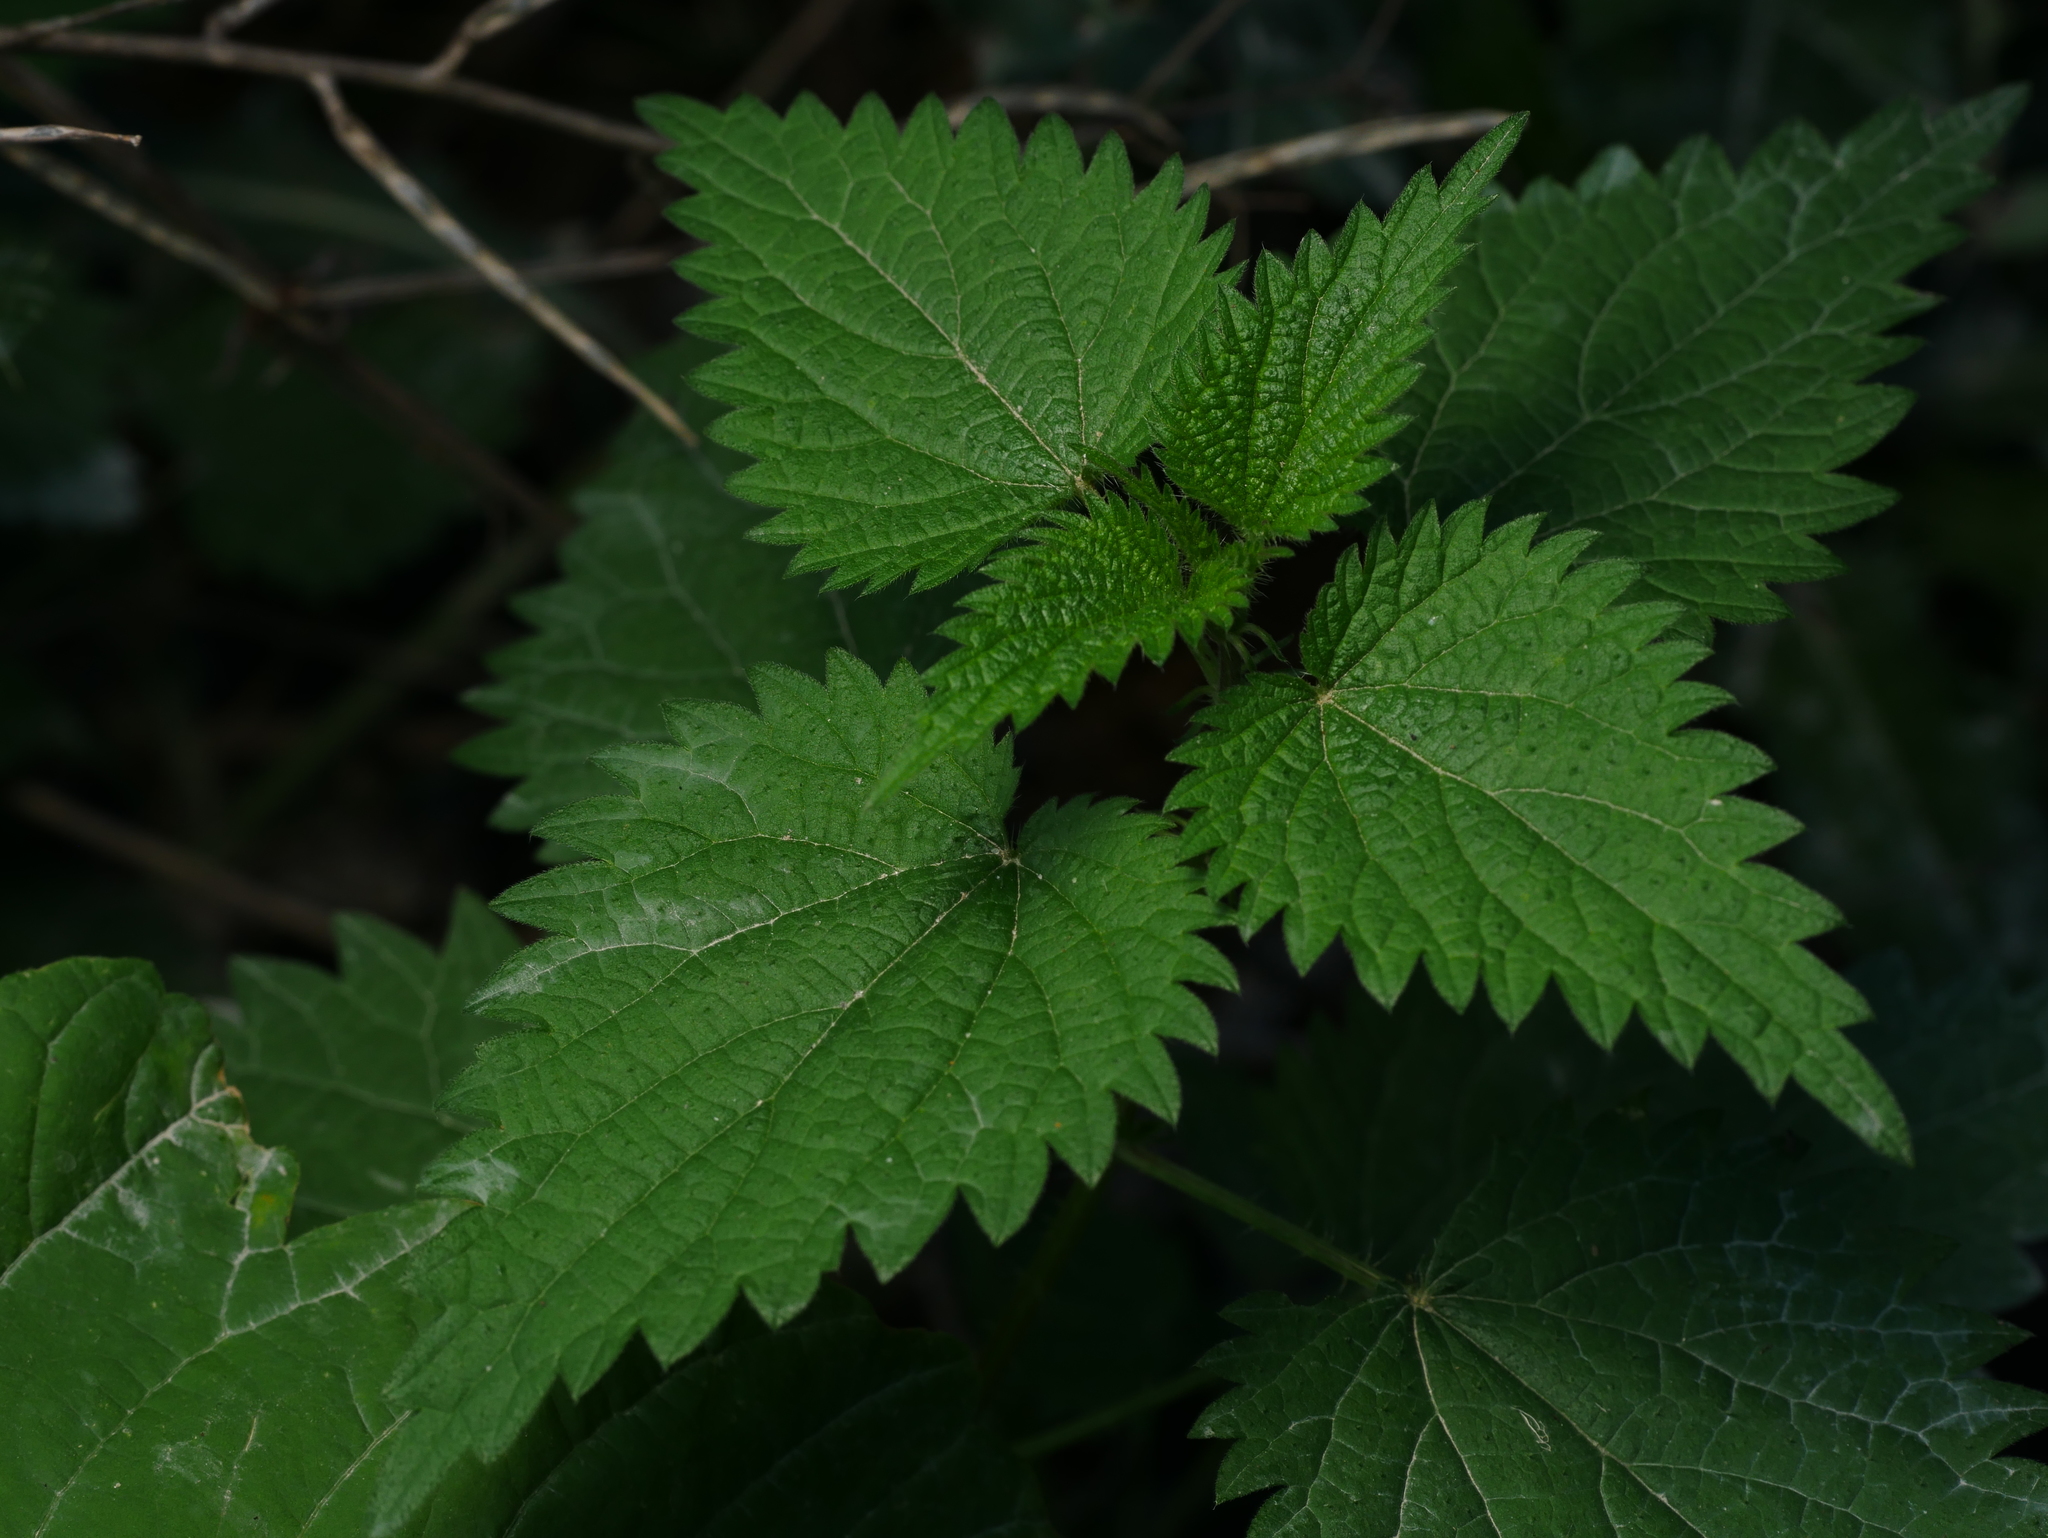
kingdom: Plantae
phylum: Tracheophyta
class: Magnoliopsida
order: Rosales
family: Urticaceae
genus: Urtica
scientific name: Urtica dioica
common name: Common nettle
